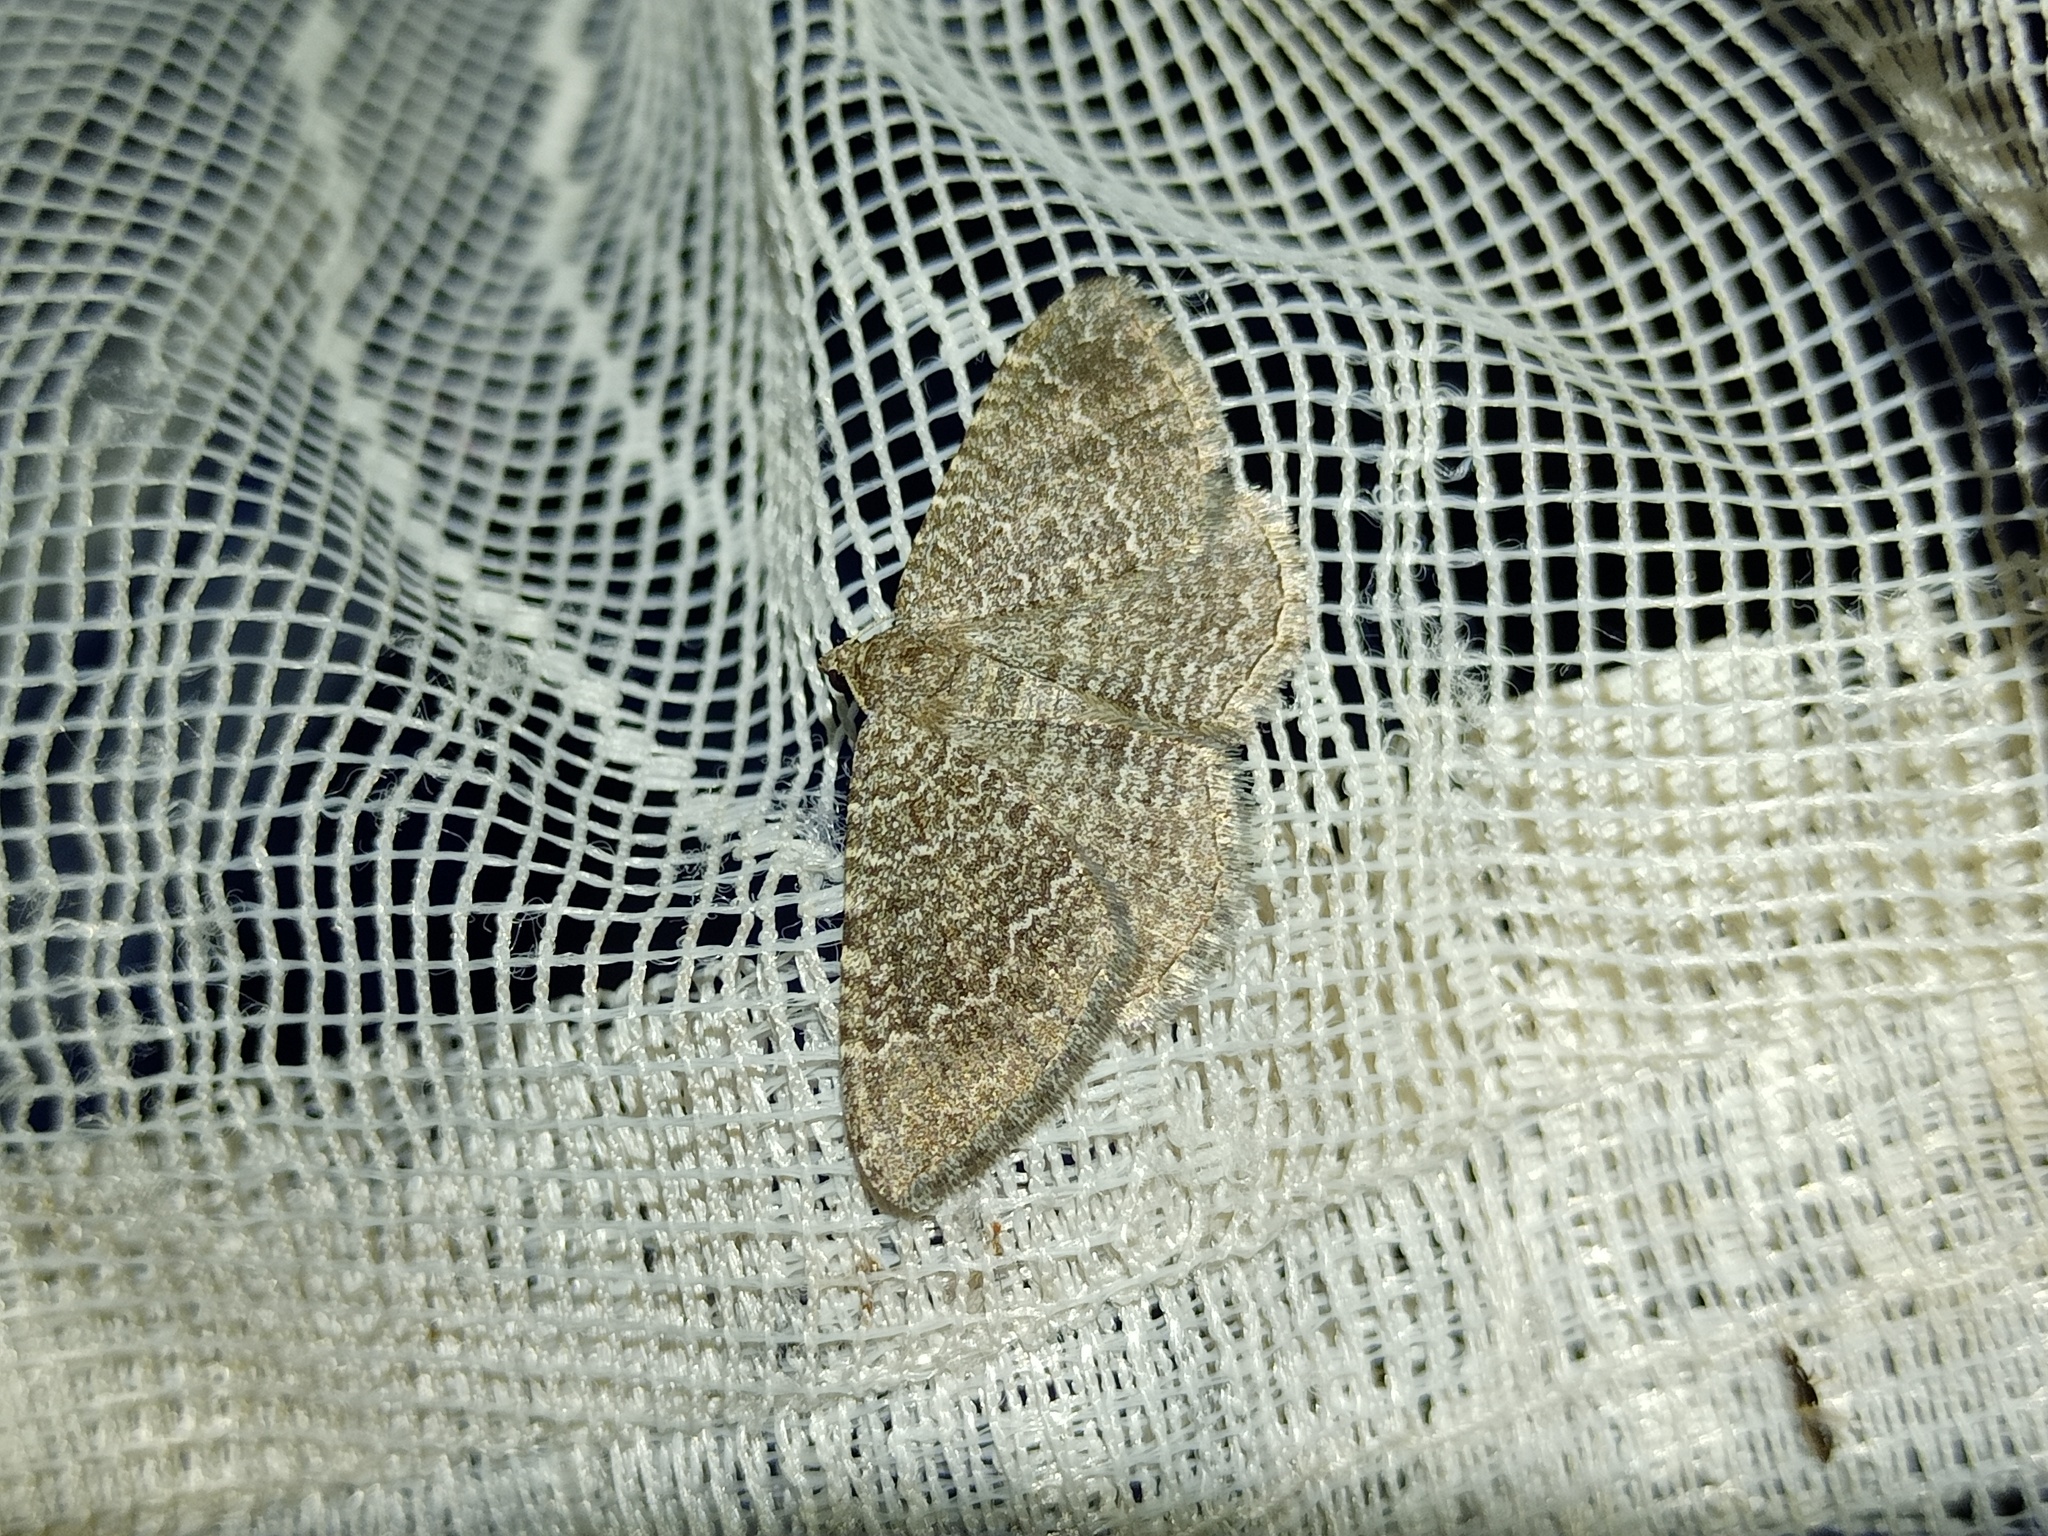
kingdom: Animalia
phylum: Arthropoda
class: Insecta
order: Lepidoptera
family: Geometridae
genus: Cataclysme
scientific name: Cataclysme riguata
